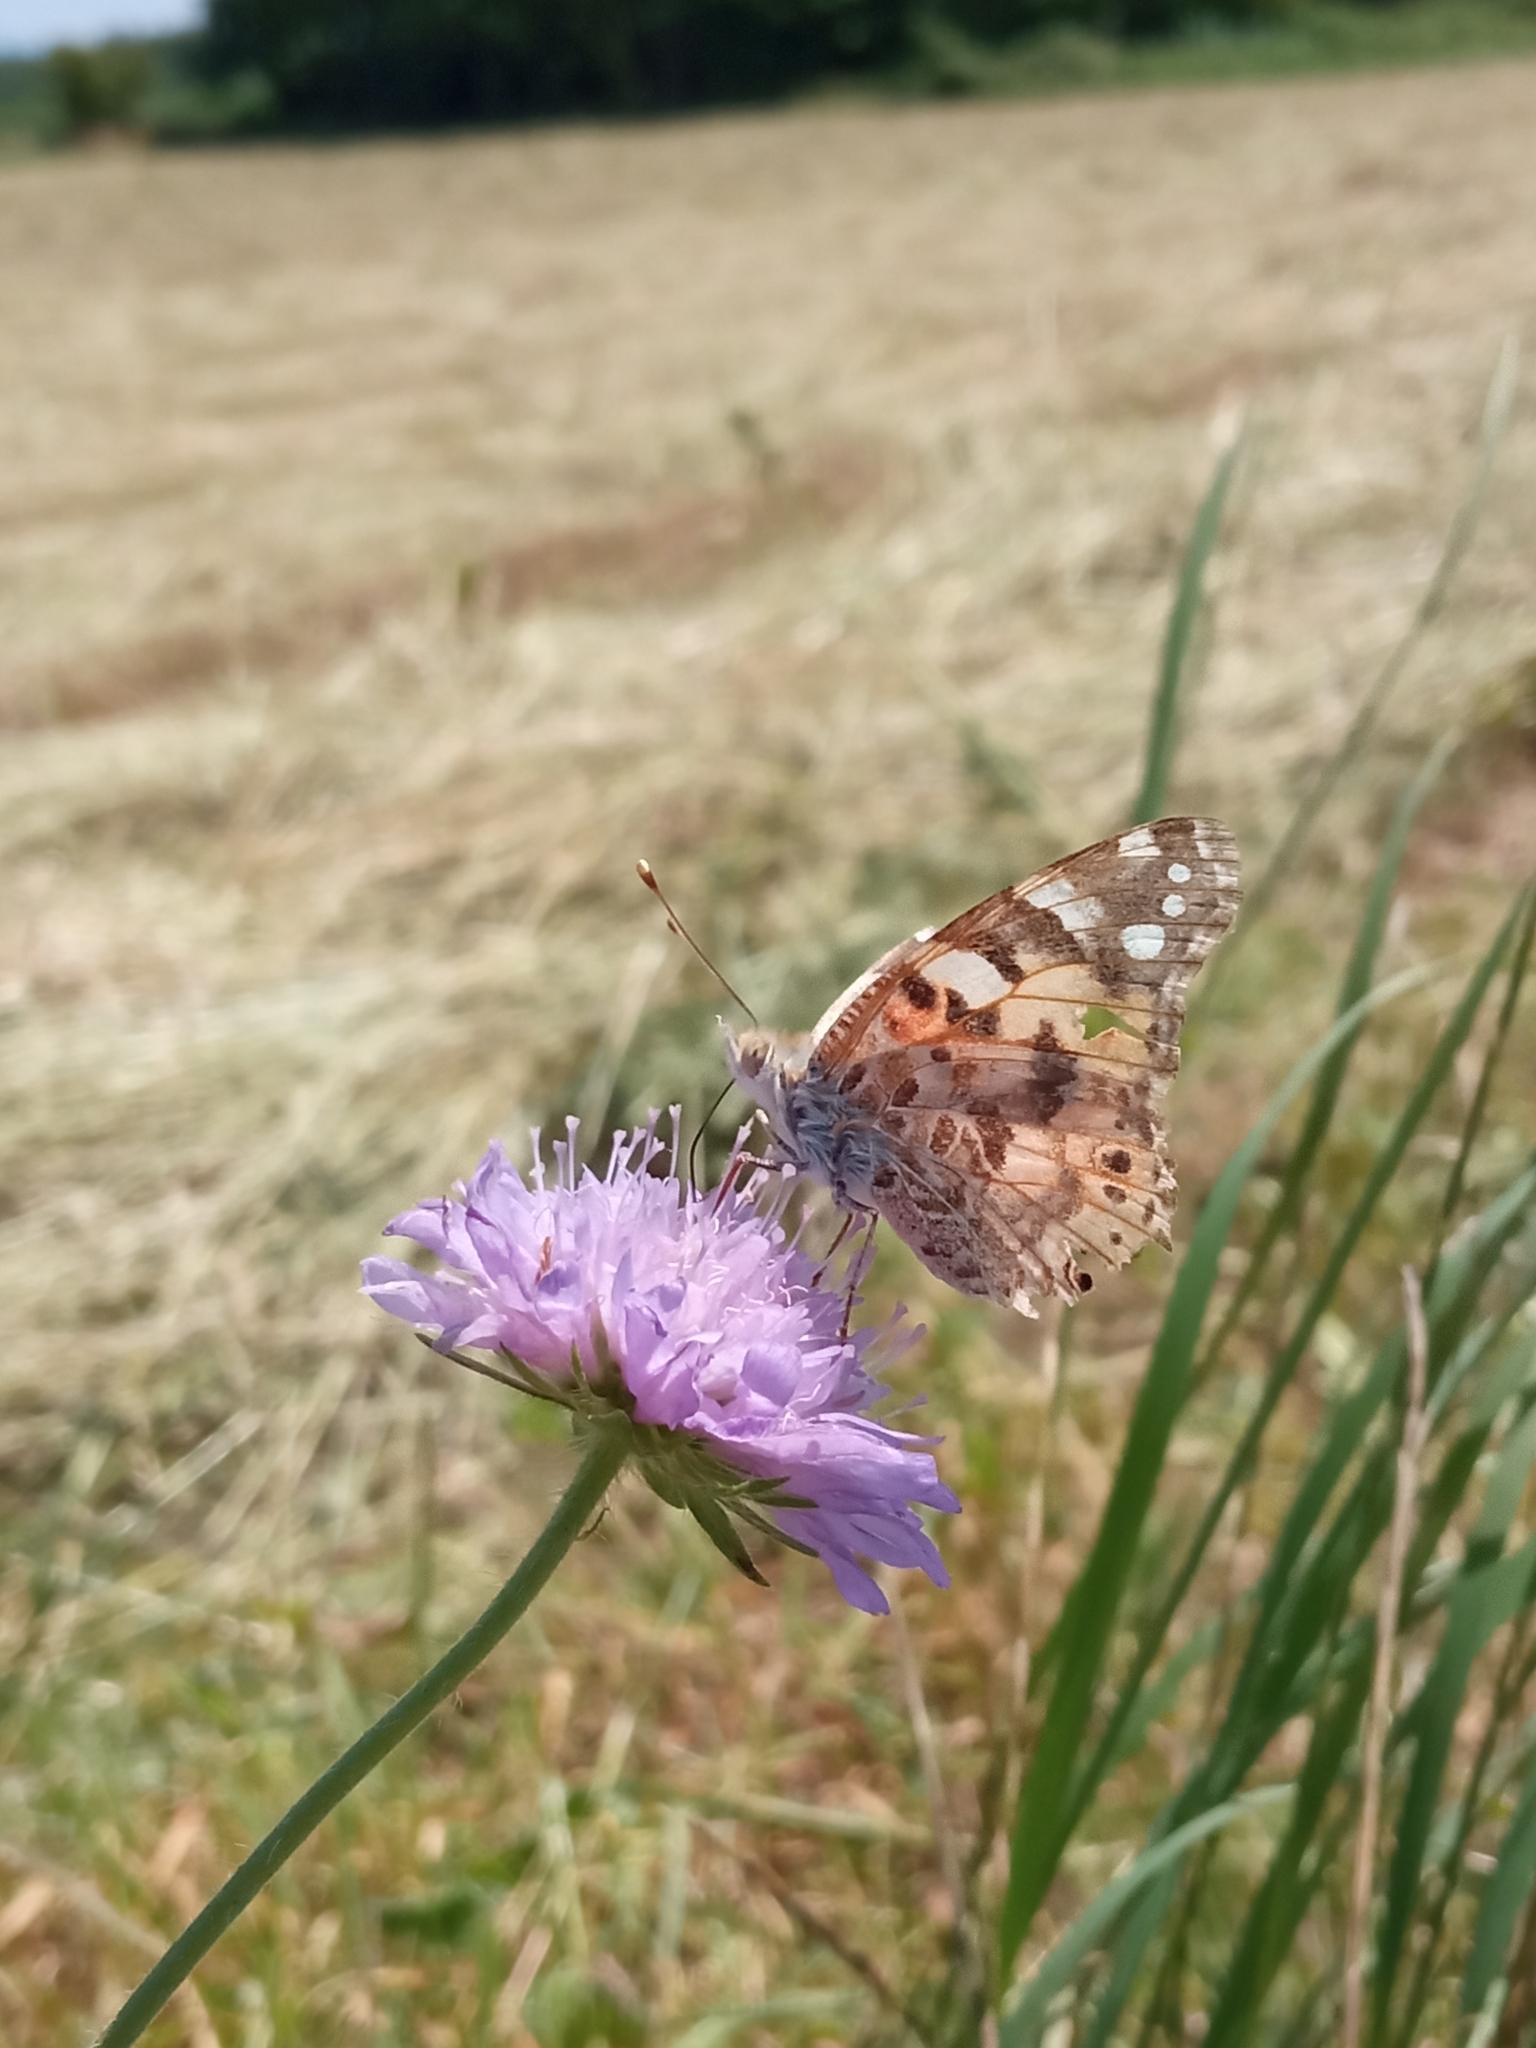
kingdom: Animalia
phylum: Arthropoda
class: Insecta
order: Lepidoptera
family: Nymphalidae
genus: Vanessa
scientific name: Vanessa cardui
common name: Painted lady
